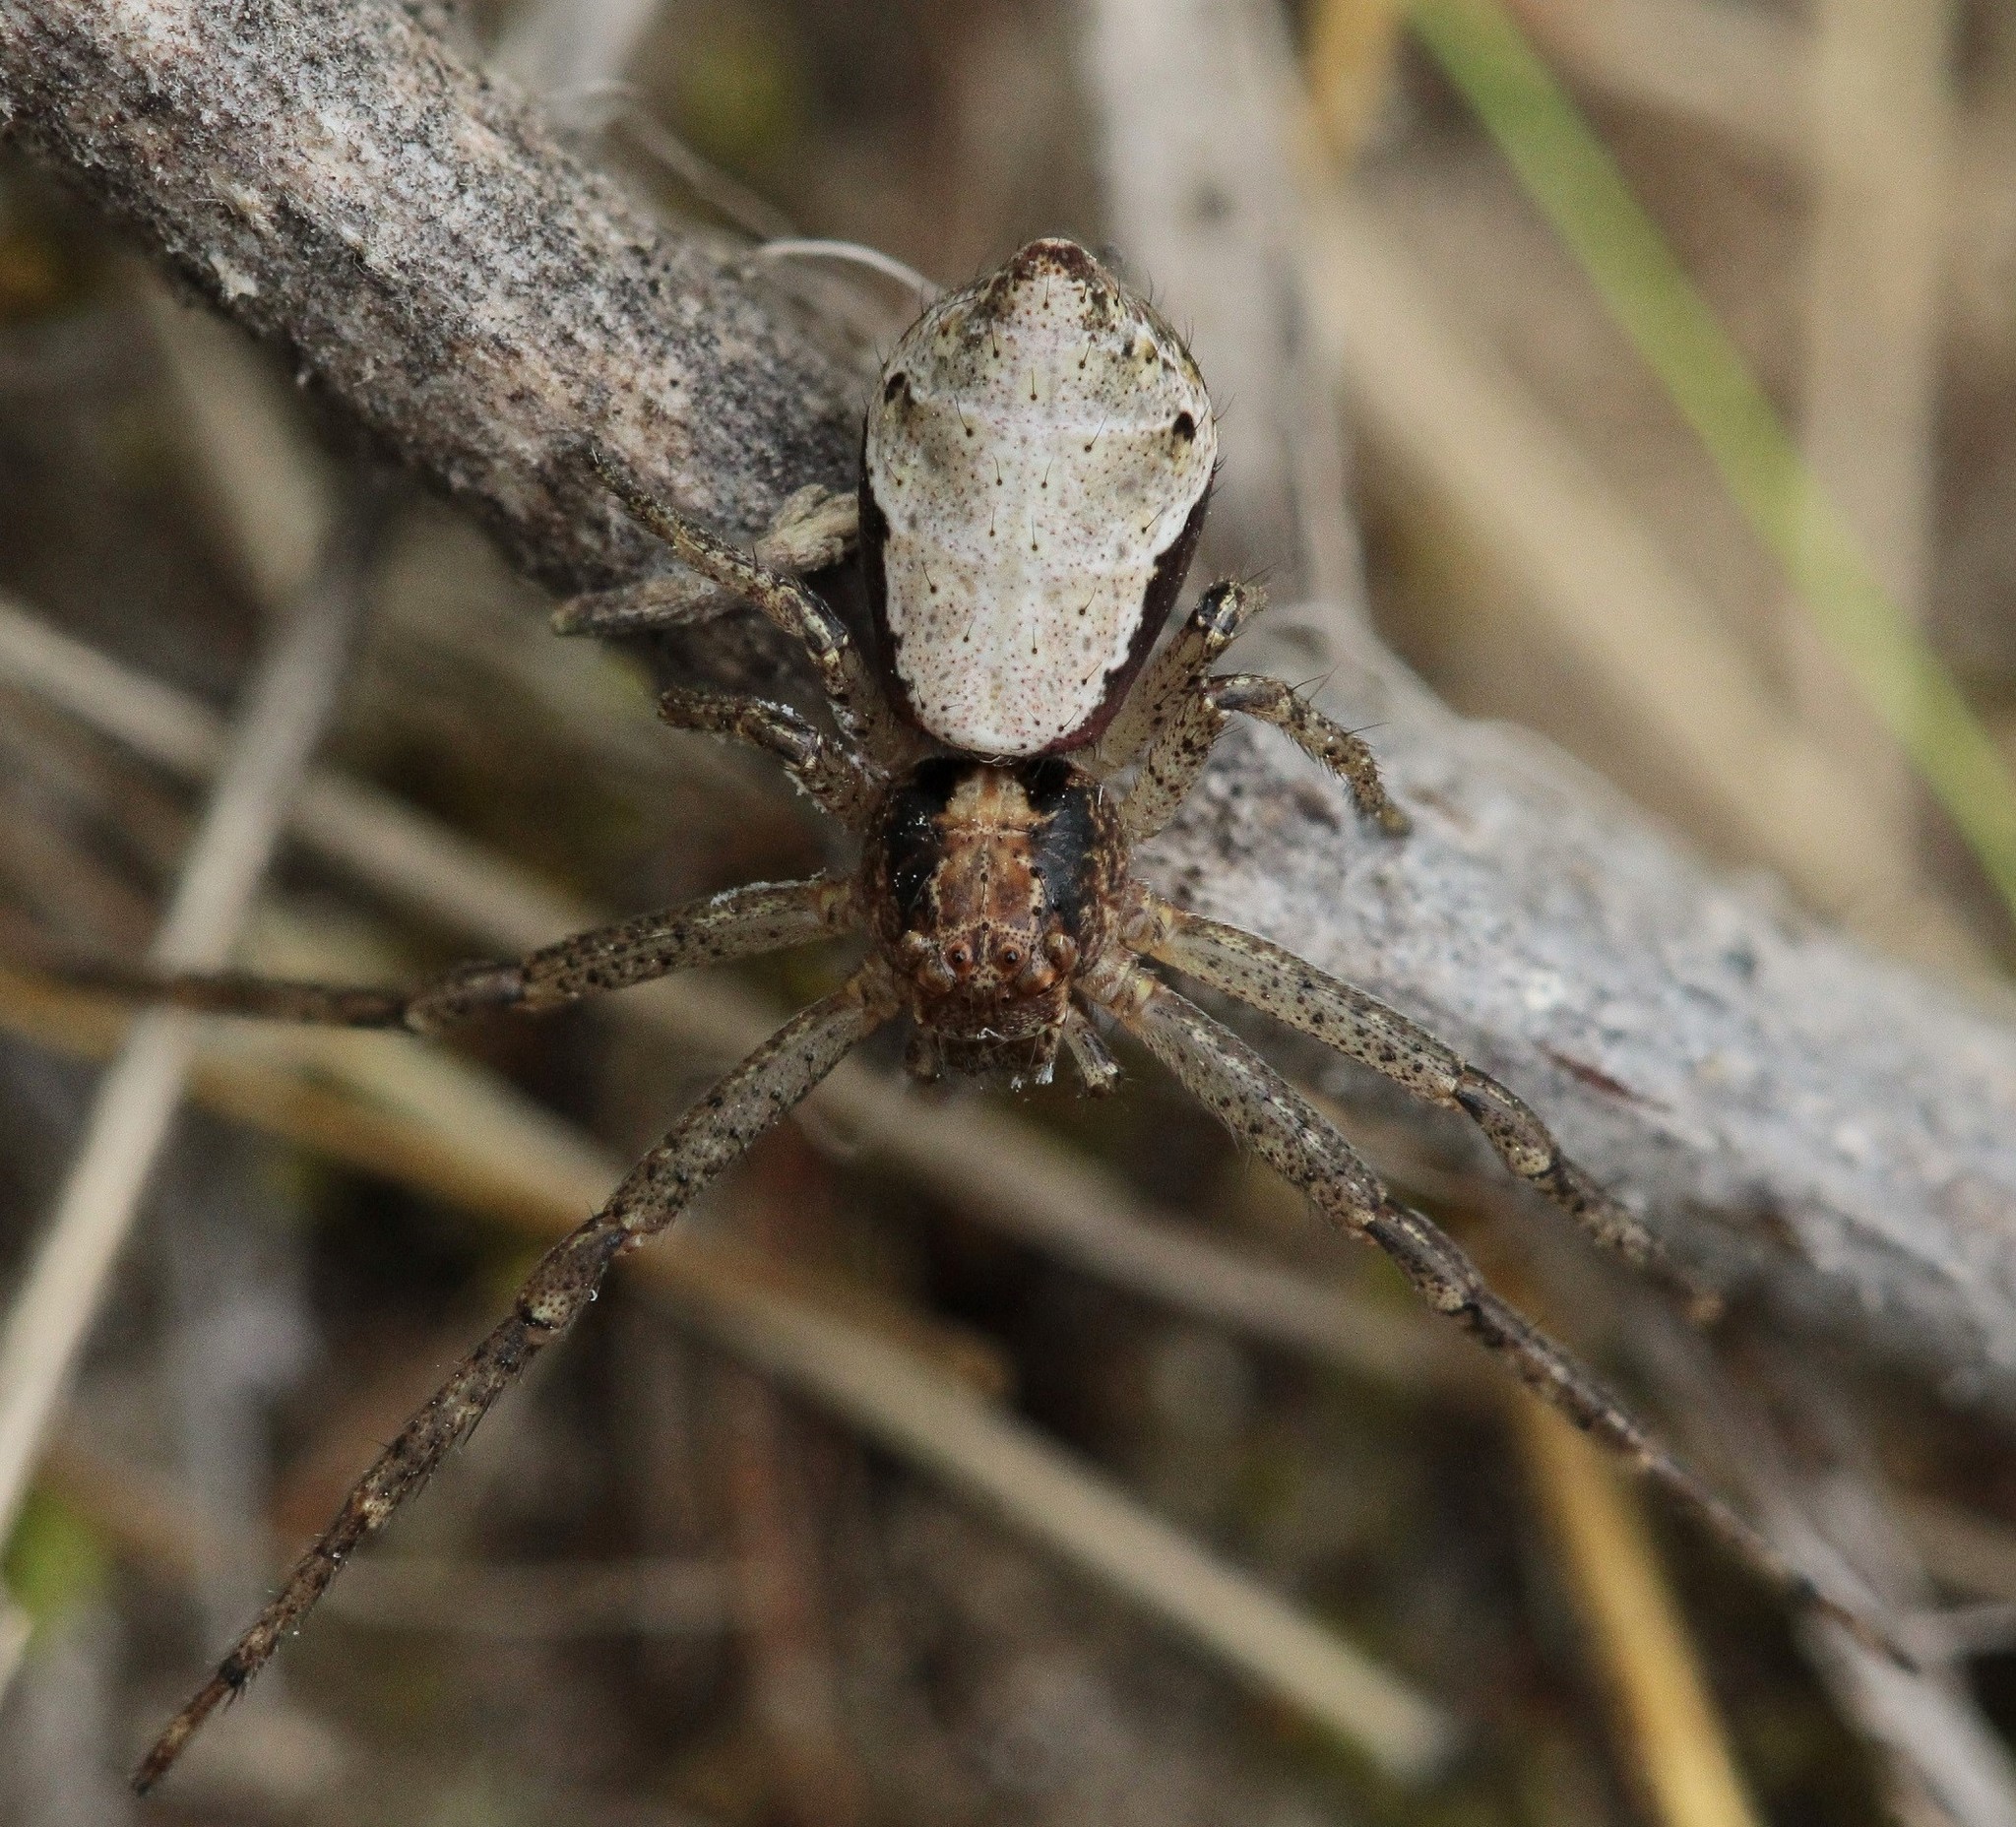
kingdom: Animalia
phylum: Arthropoda
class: Arachnida
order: Araneae
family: Thomisidae
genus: Tmarus
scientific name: Tmarus
